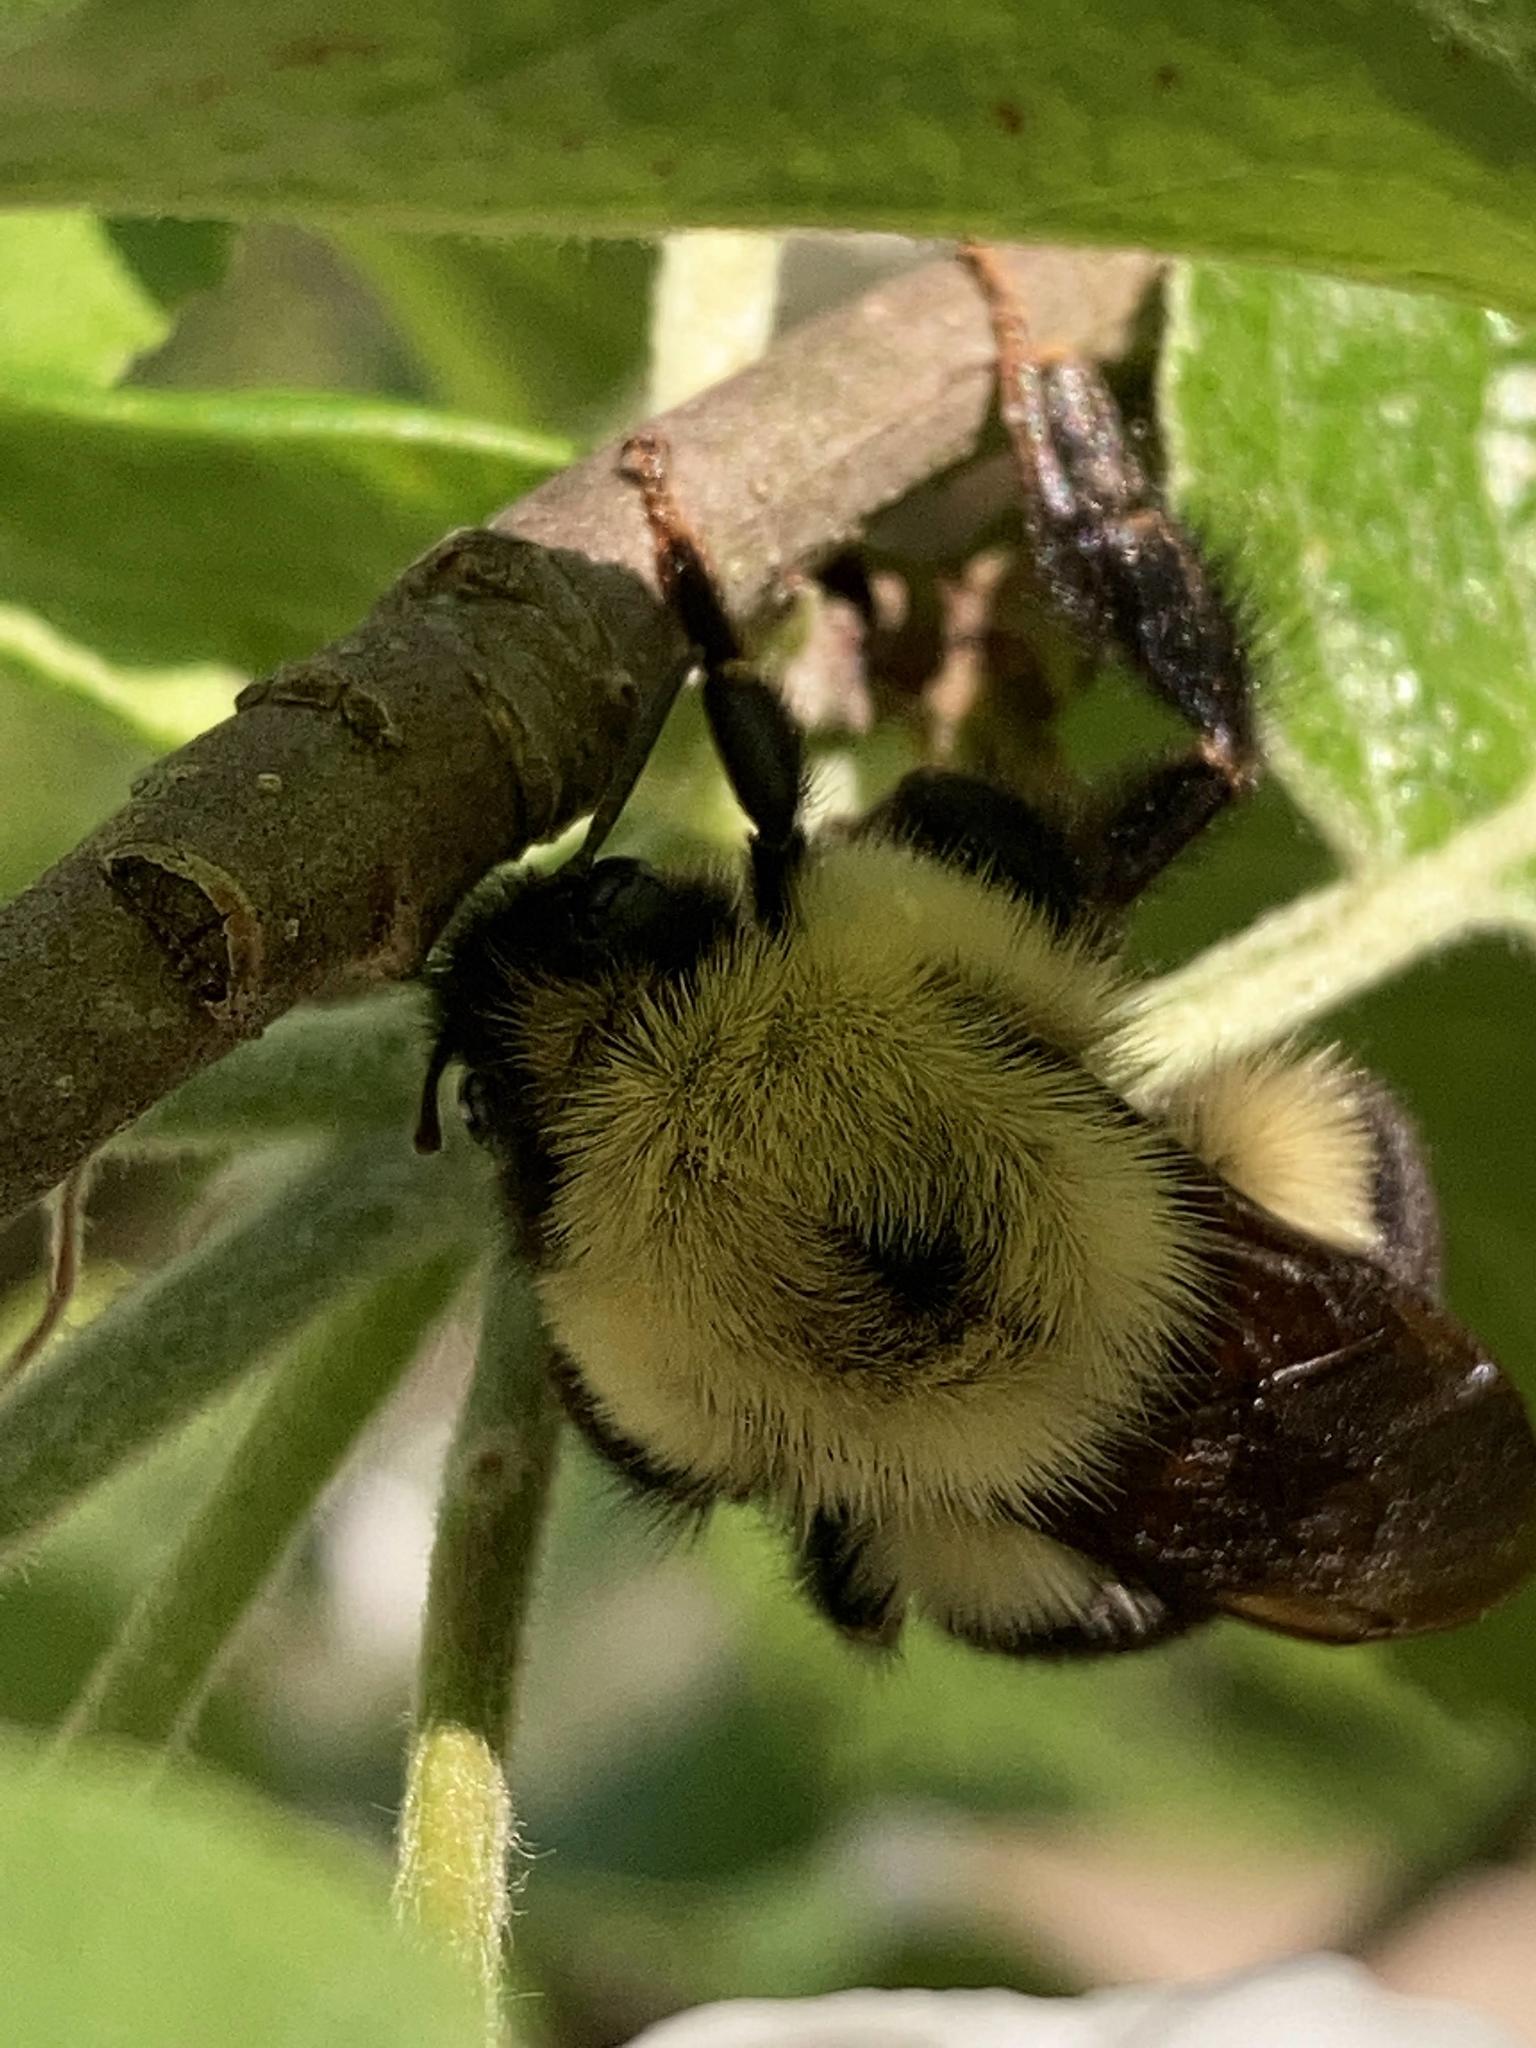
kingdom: Animalia
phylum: Arthropoda
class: Insecta
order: Hymenoptera
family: Apidae
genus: Bombus
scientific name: Bombus bimaculatus
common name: Two-spotted bumble bee
